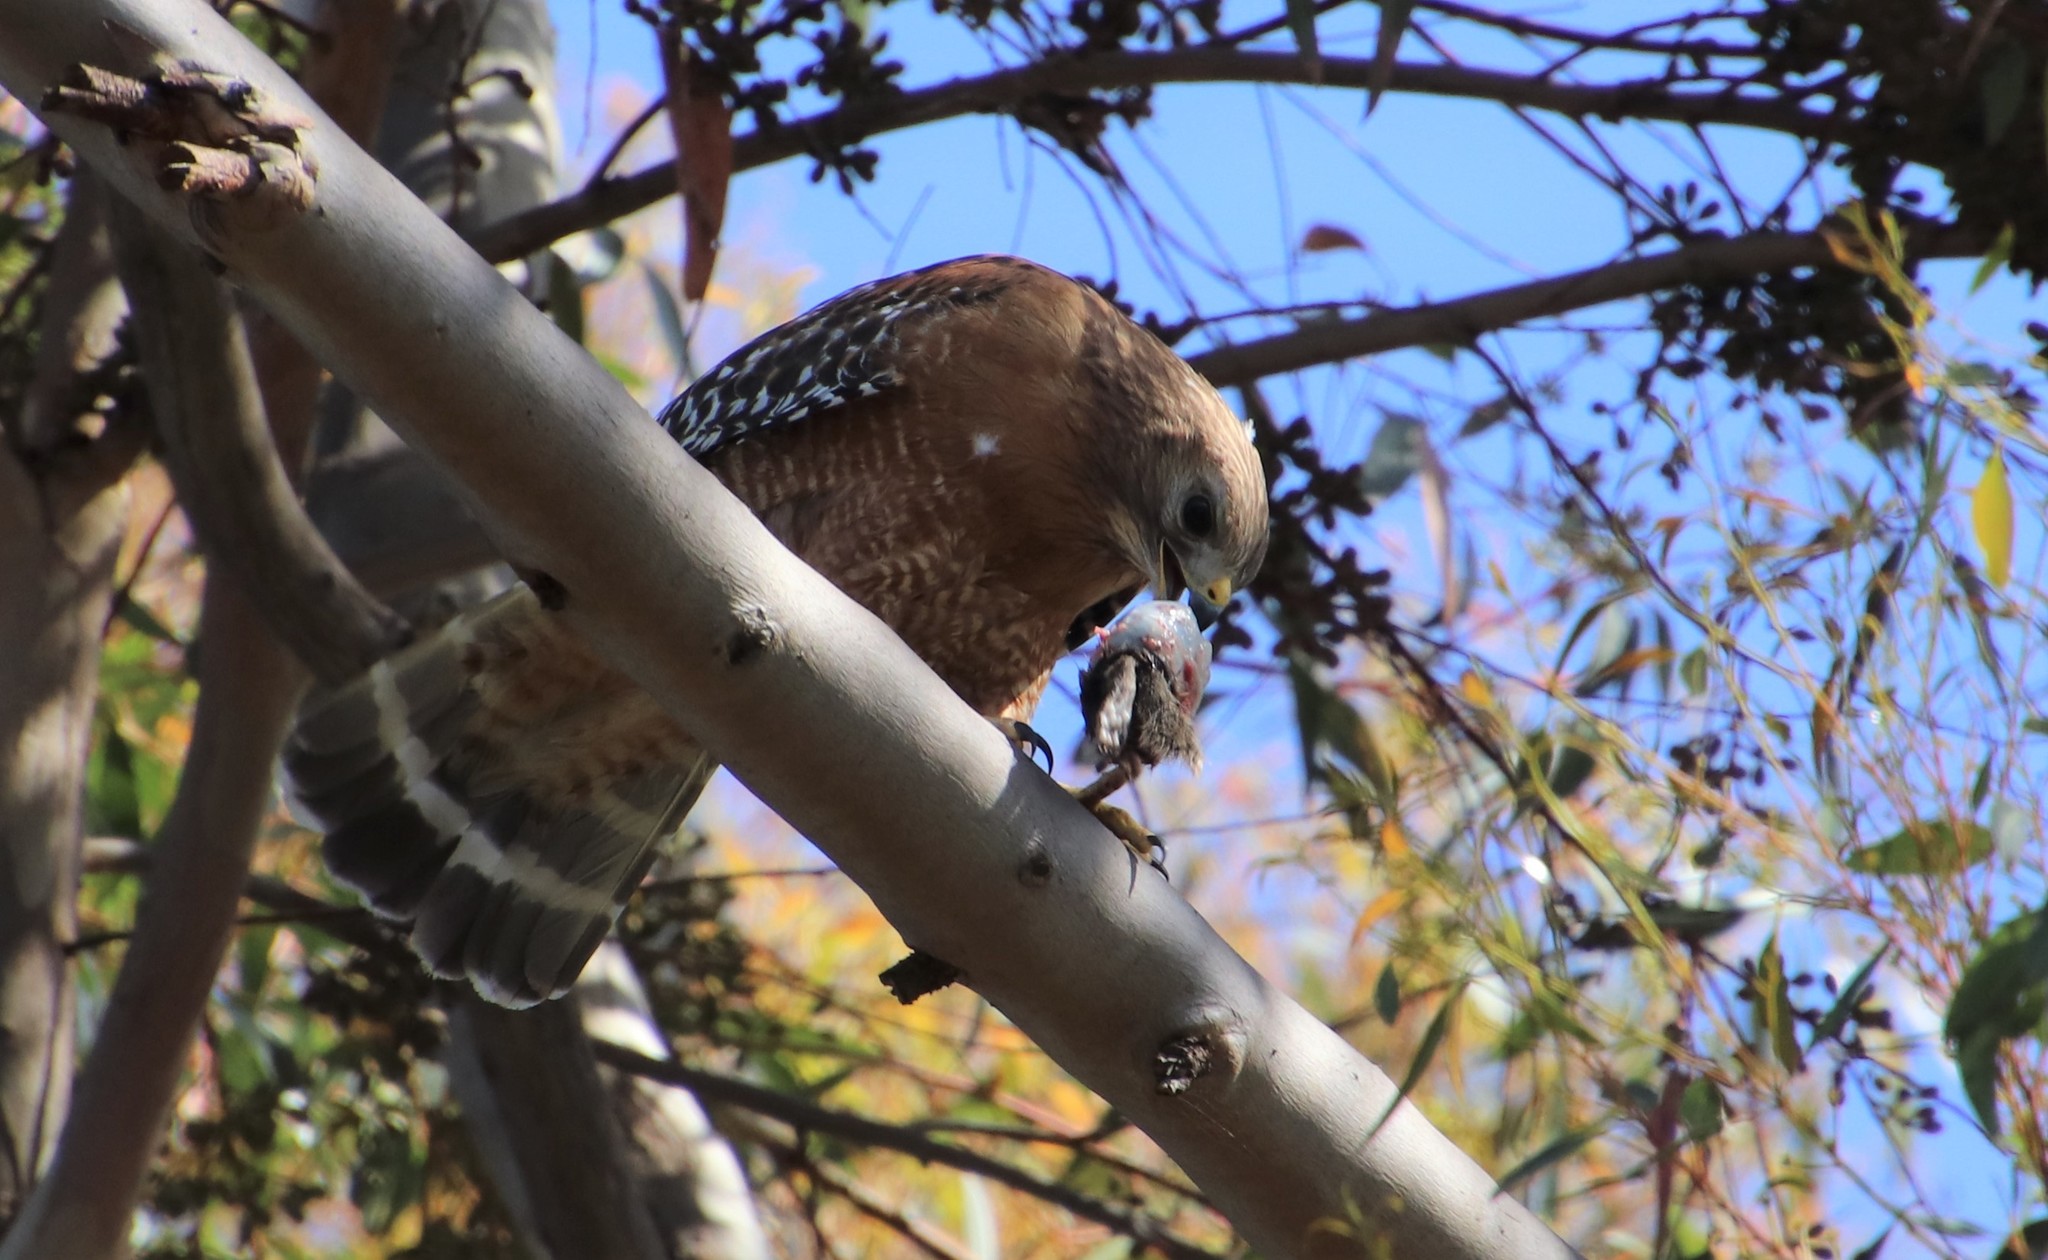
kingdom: Animalia
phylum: Chordata
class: Aves
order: Accipitriformes
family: Accipitridae
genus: Buteo
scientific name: Buteo lineatus
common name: Red-shouldered hawk
